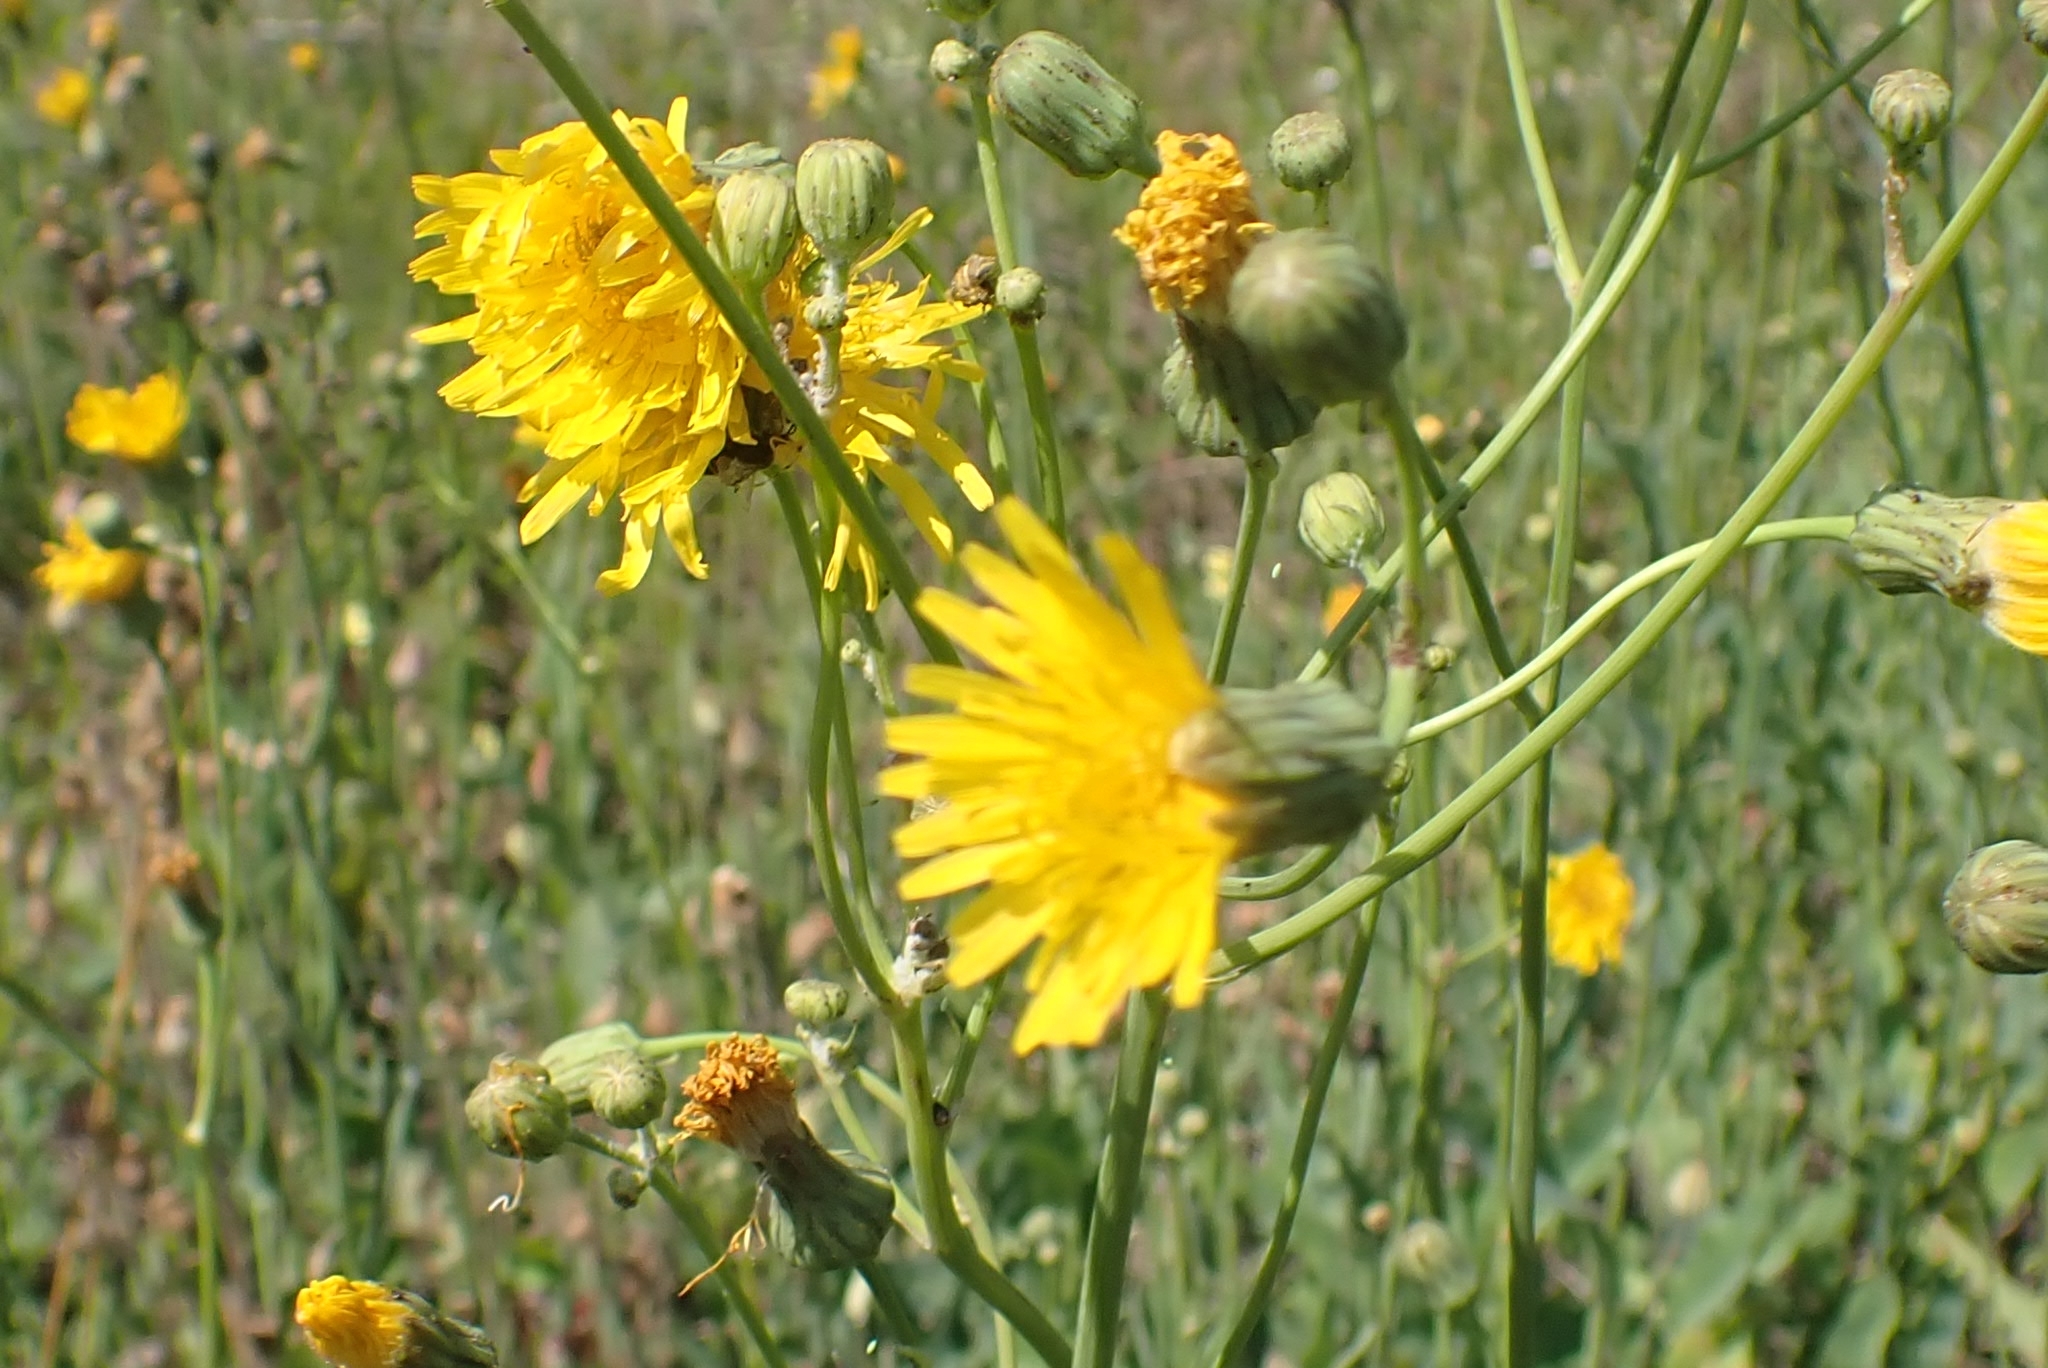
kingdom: Plantae
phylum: Tracheophyta
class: Magnoliopsida
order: Asterales
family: Asteraceae
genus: Sonchus
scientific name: Sonchus arvensis
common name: Perennial sow-thistle
